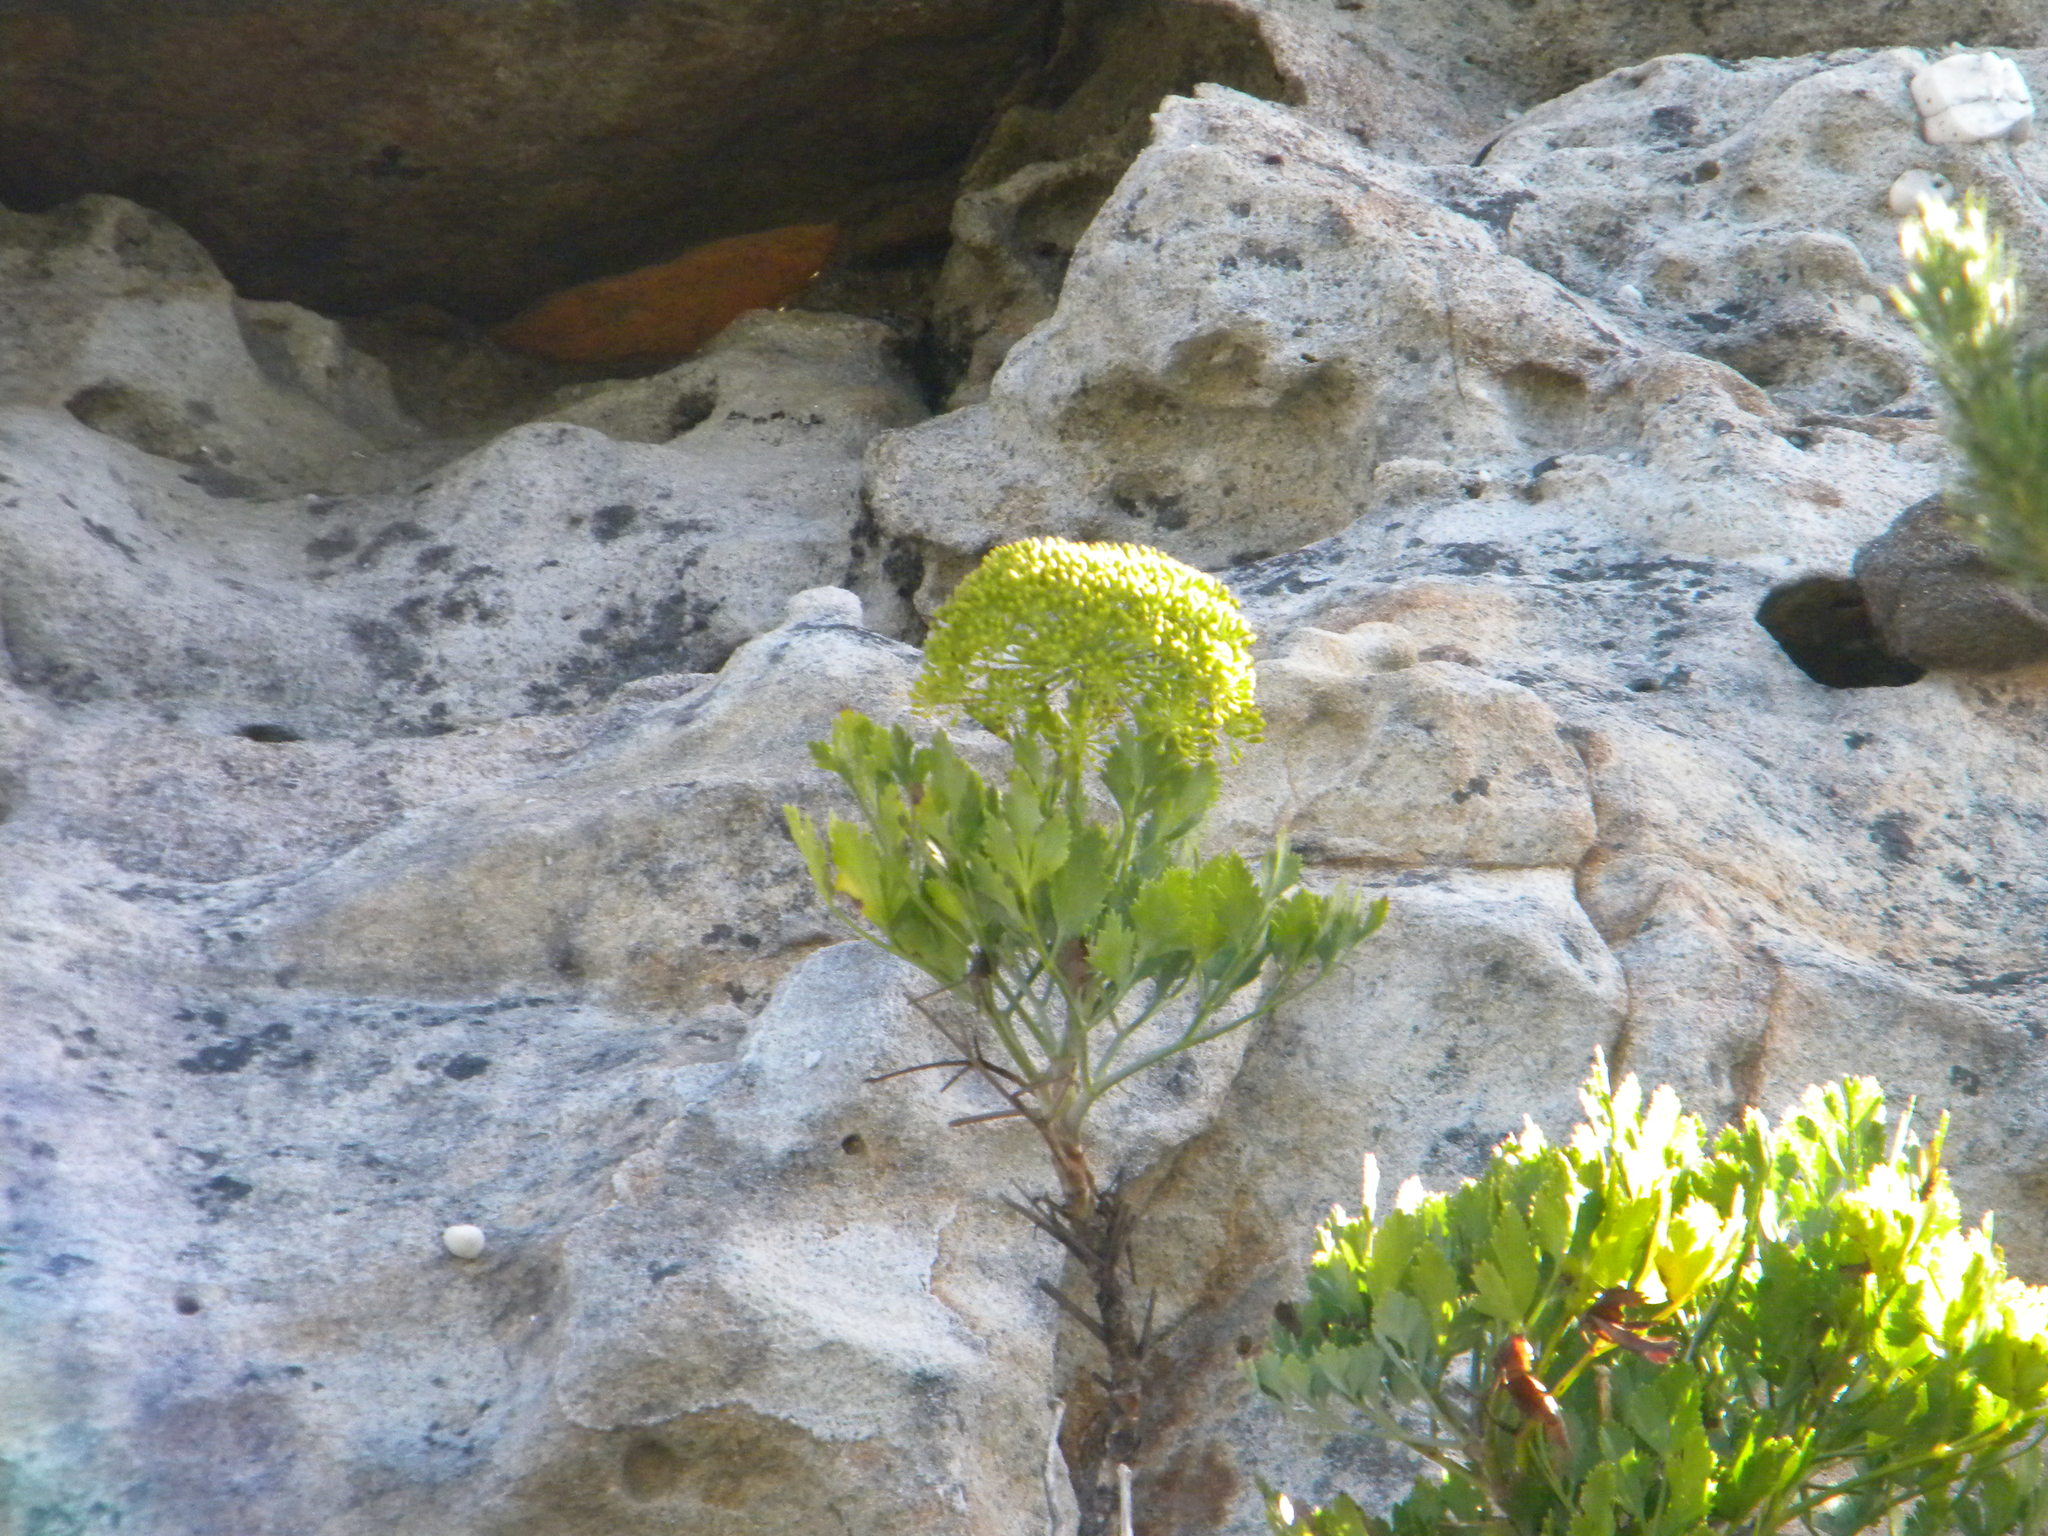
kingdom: Plantae
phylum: Tracheophyta
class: Magnoliopsida
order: Apiales
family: Apiaceae
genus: Notobubon
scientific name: Notobubon galbanum
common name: Blisterbush
